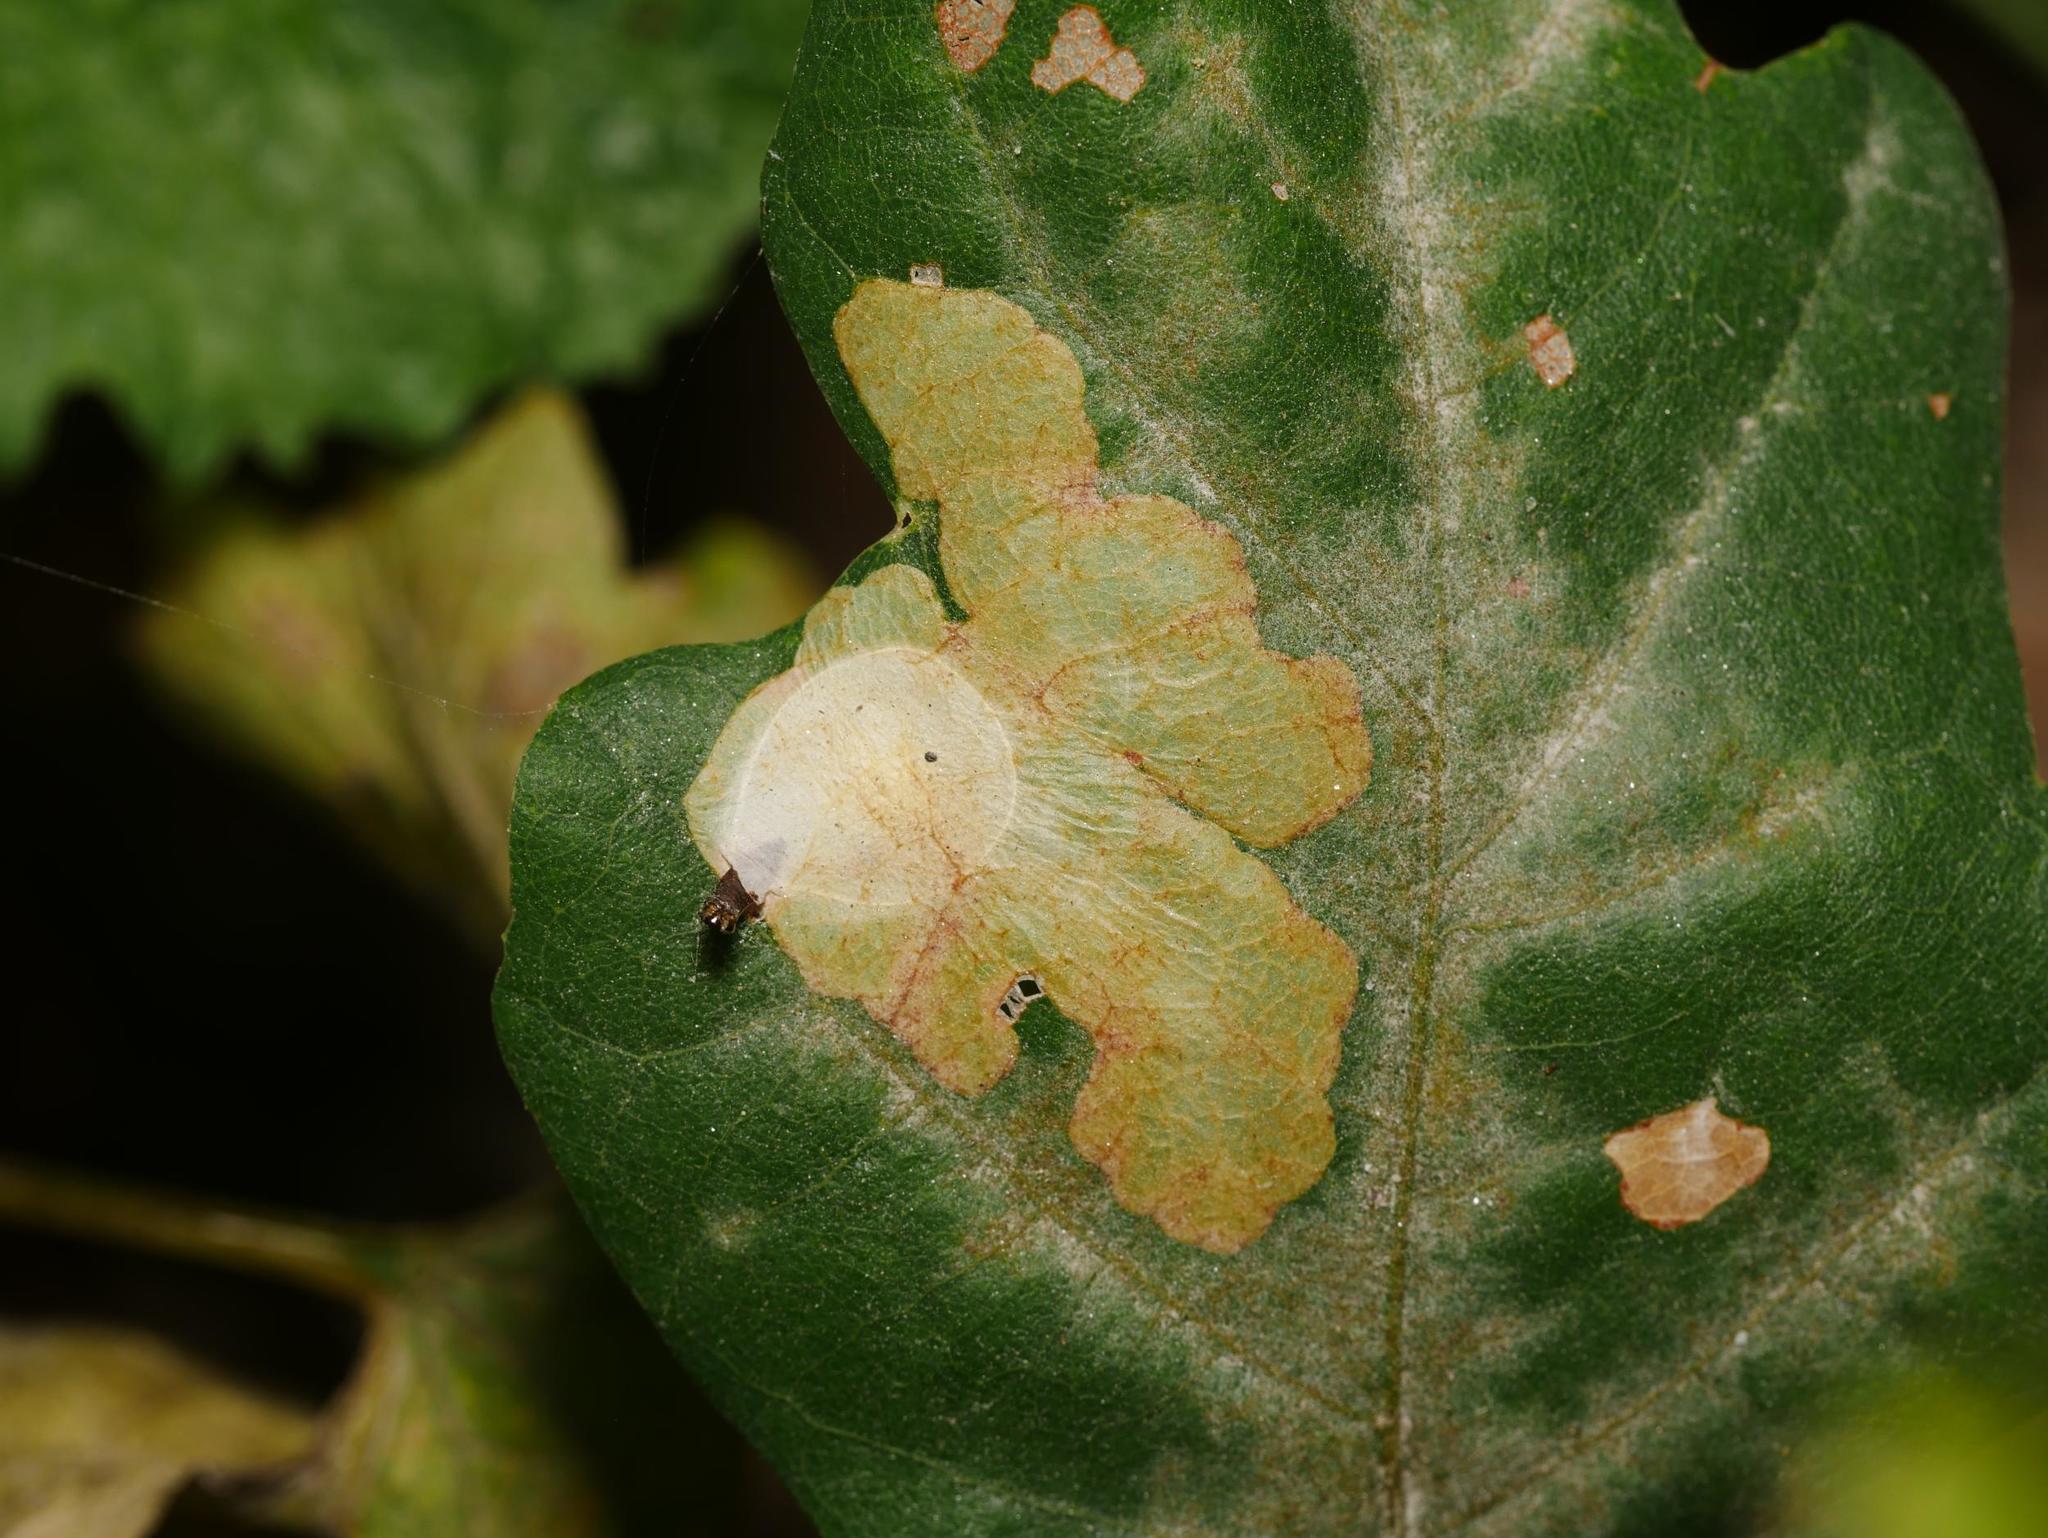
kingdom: Animalia
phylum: Arthropoda
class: Insecta
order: Lepidoptera
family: Tischeriidae
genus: Tischeria
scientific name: Tischeria ekebladella
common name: Oak carl
